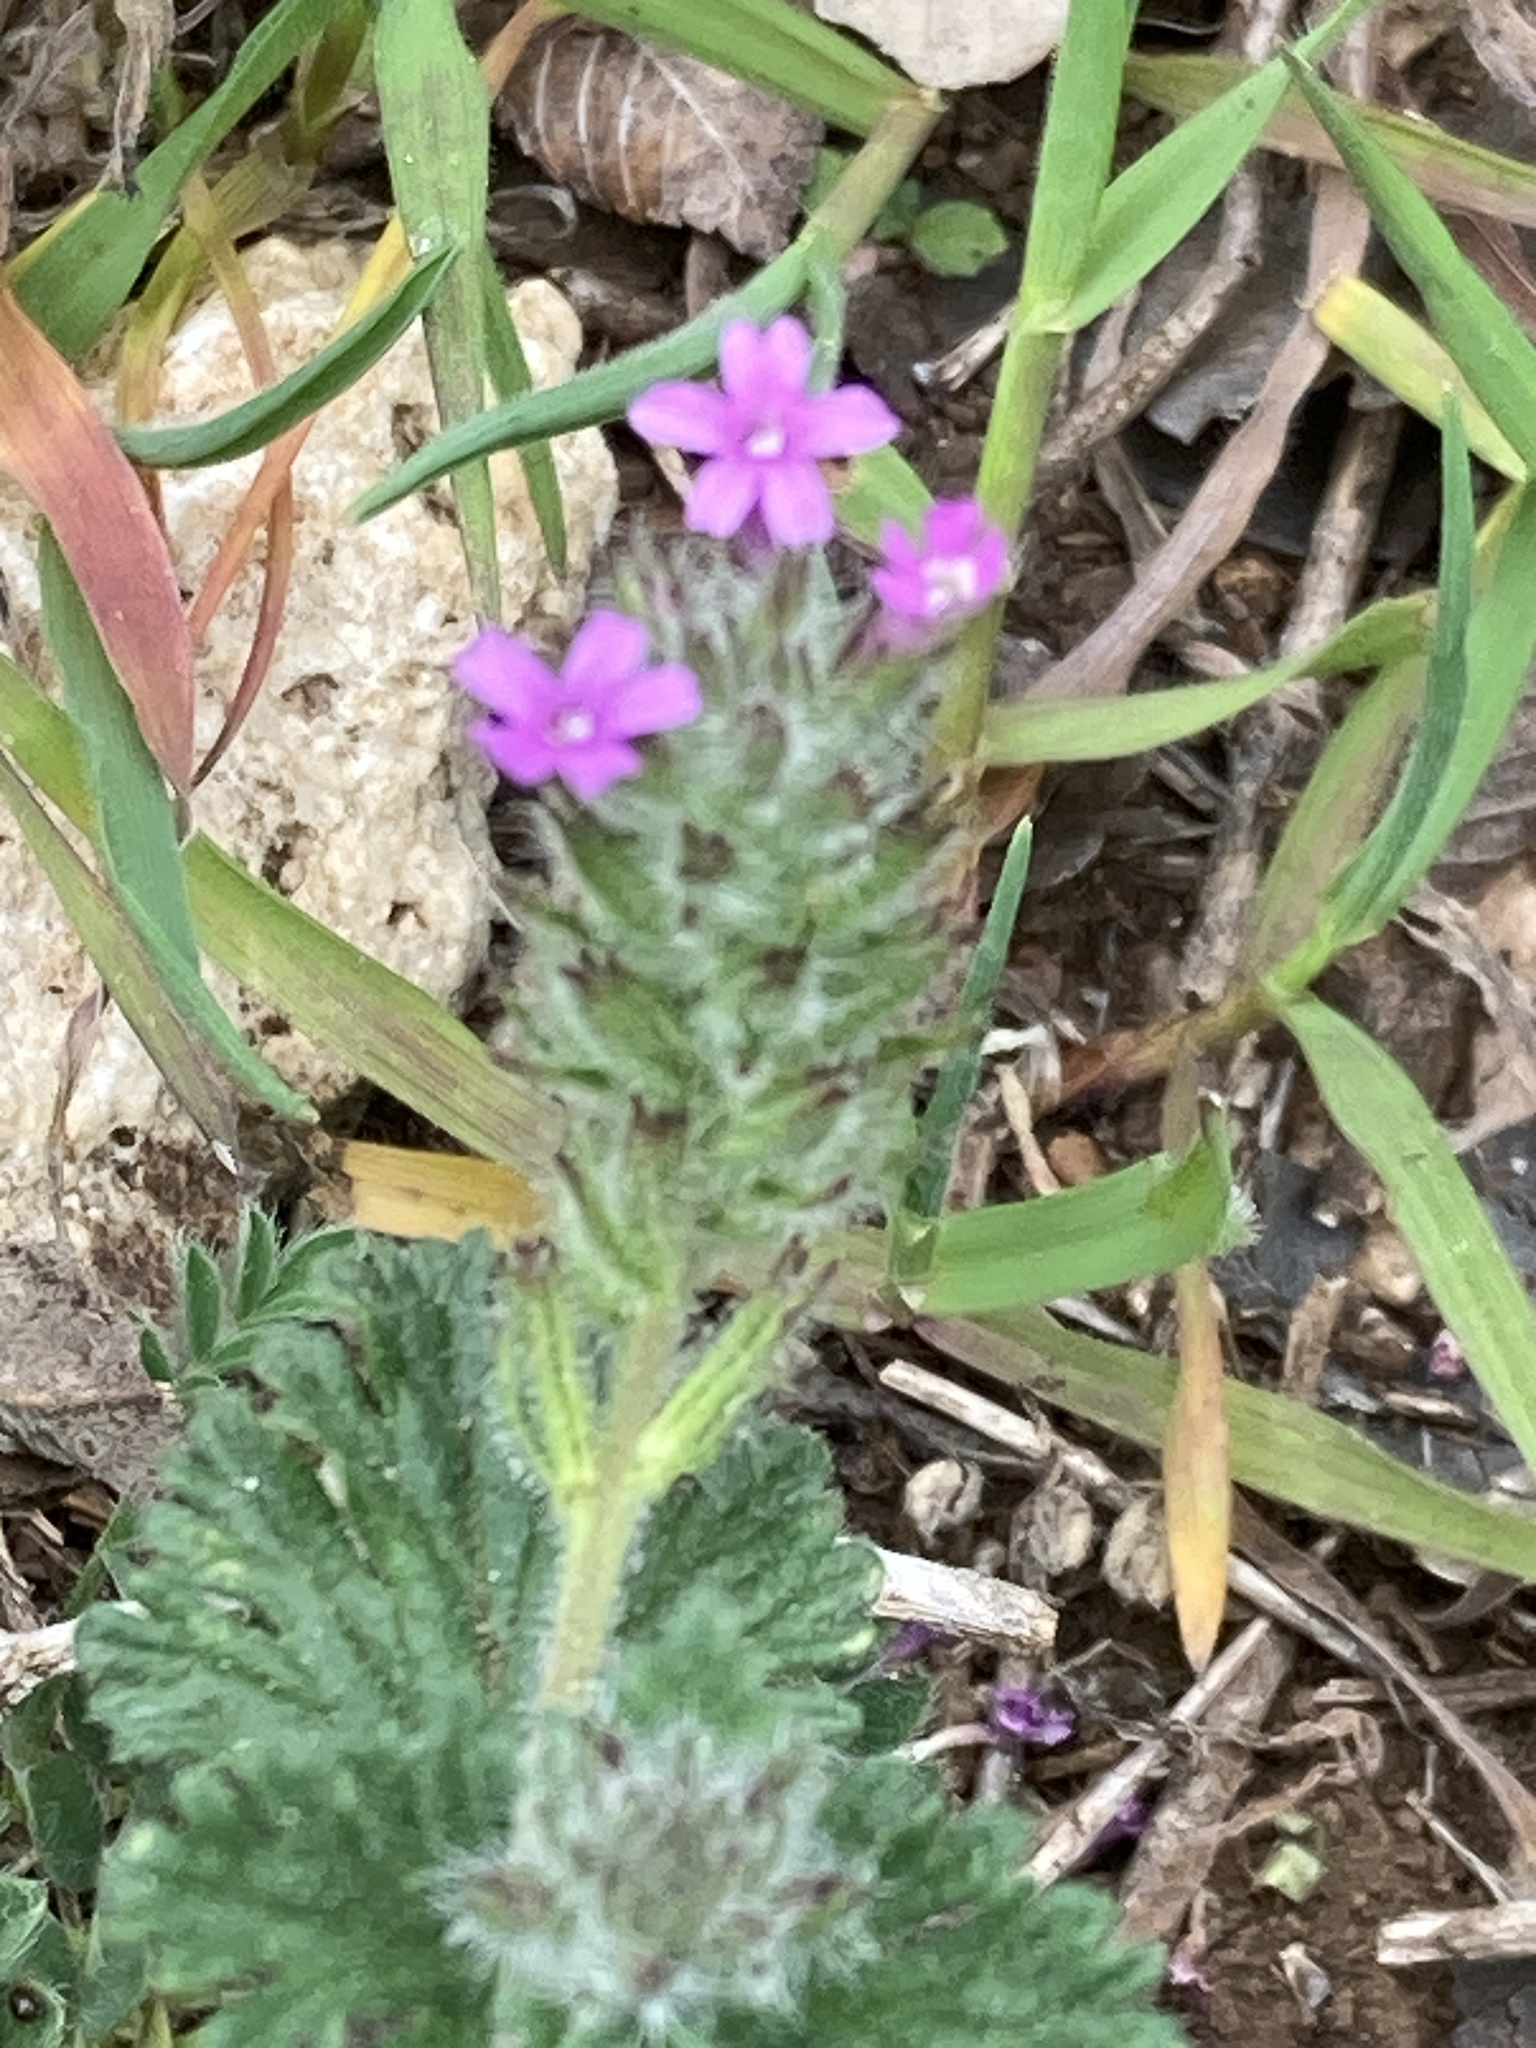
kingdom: Plantae
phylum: Tracheophyta
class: Magnoliopsida
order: Lamiales
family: Verbenaceae
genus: Verbena
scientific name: Verbena pumila
